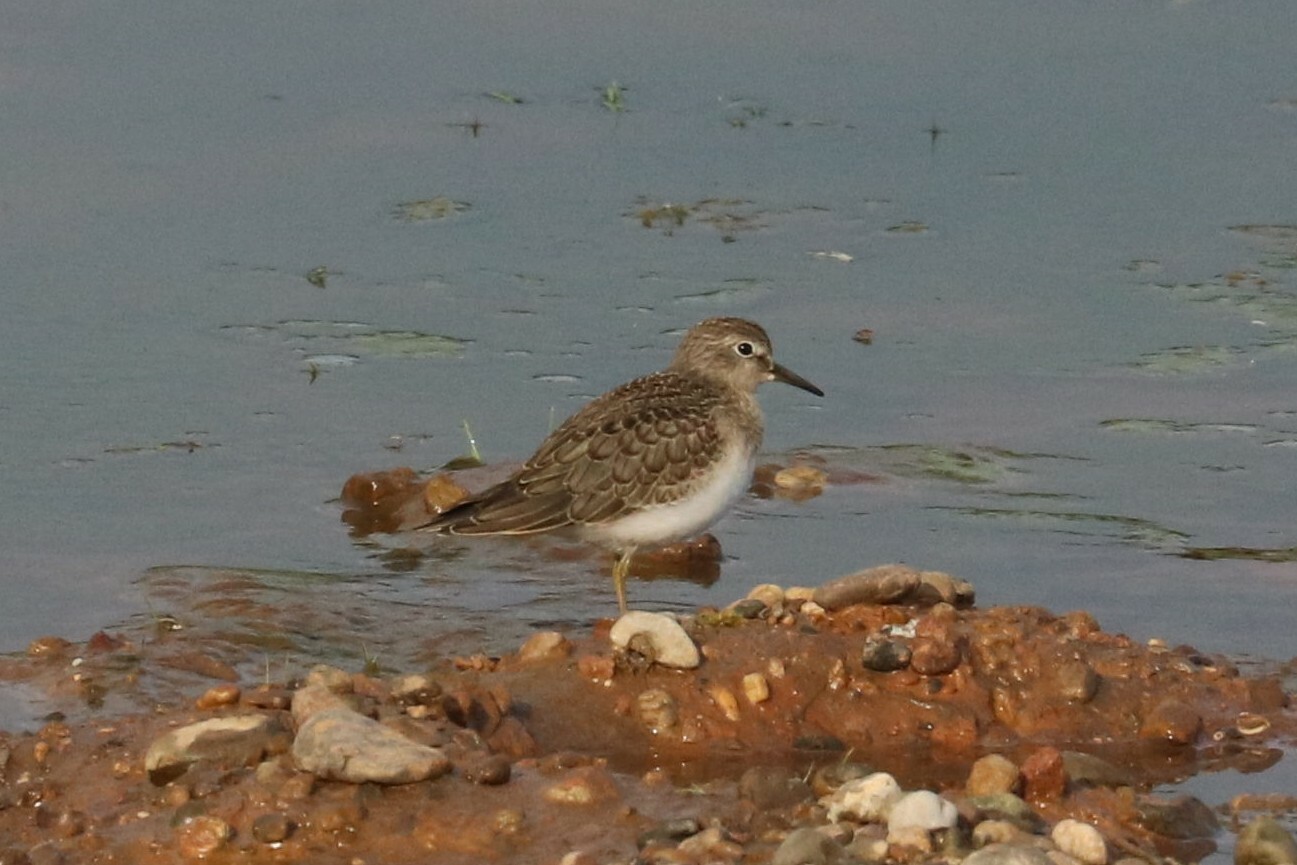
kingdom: Animalia
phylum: Chordata
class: Aves
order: Charadriiformes
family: Scolopacidae
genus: Calidris
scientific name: Calidris temminckii
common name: Temminck's stint
